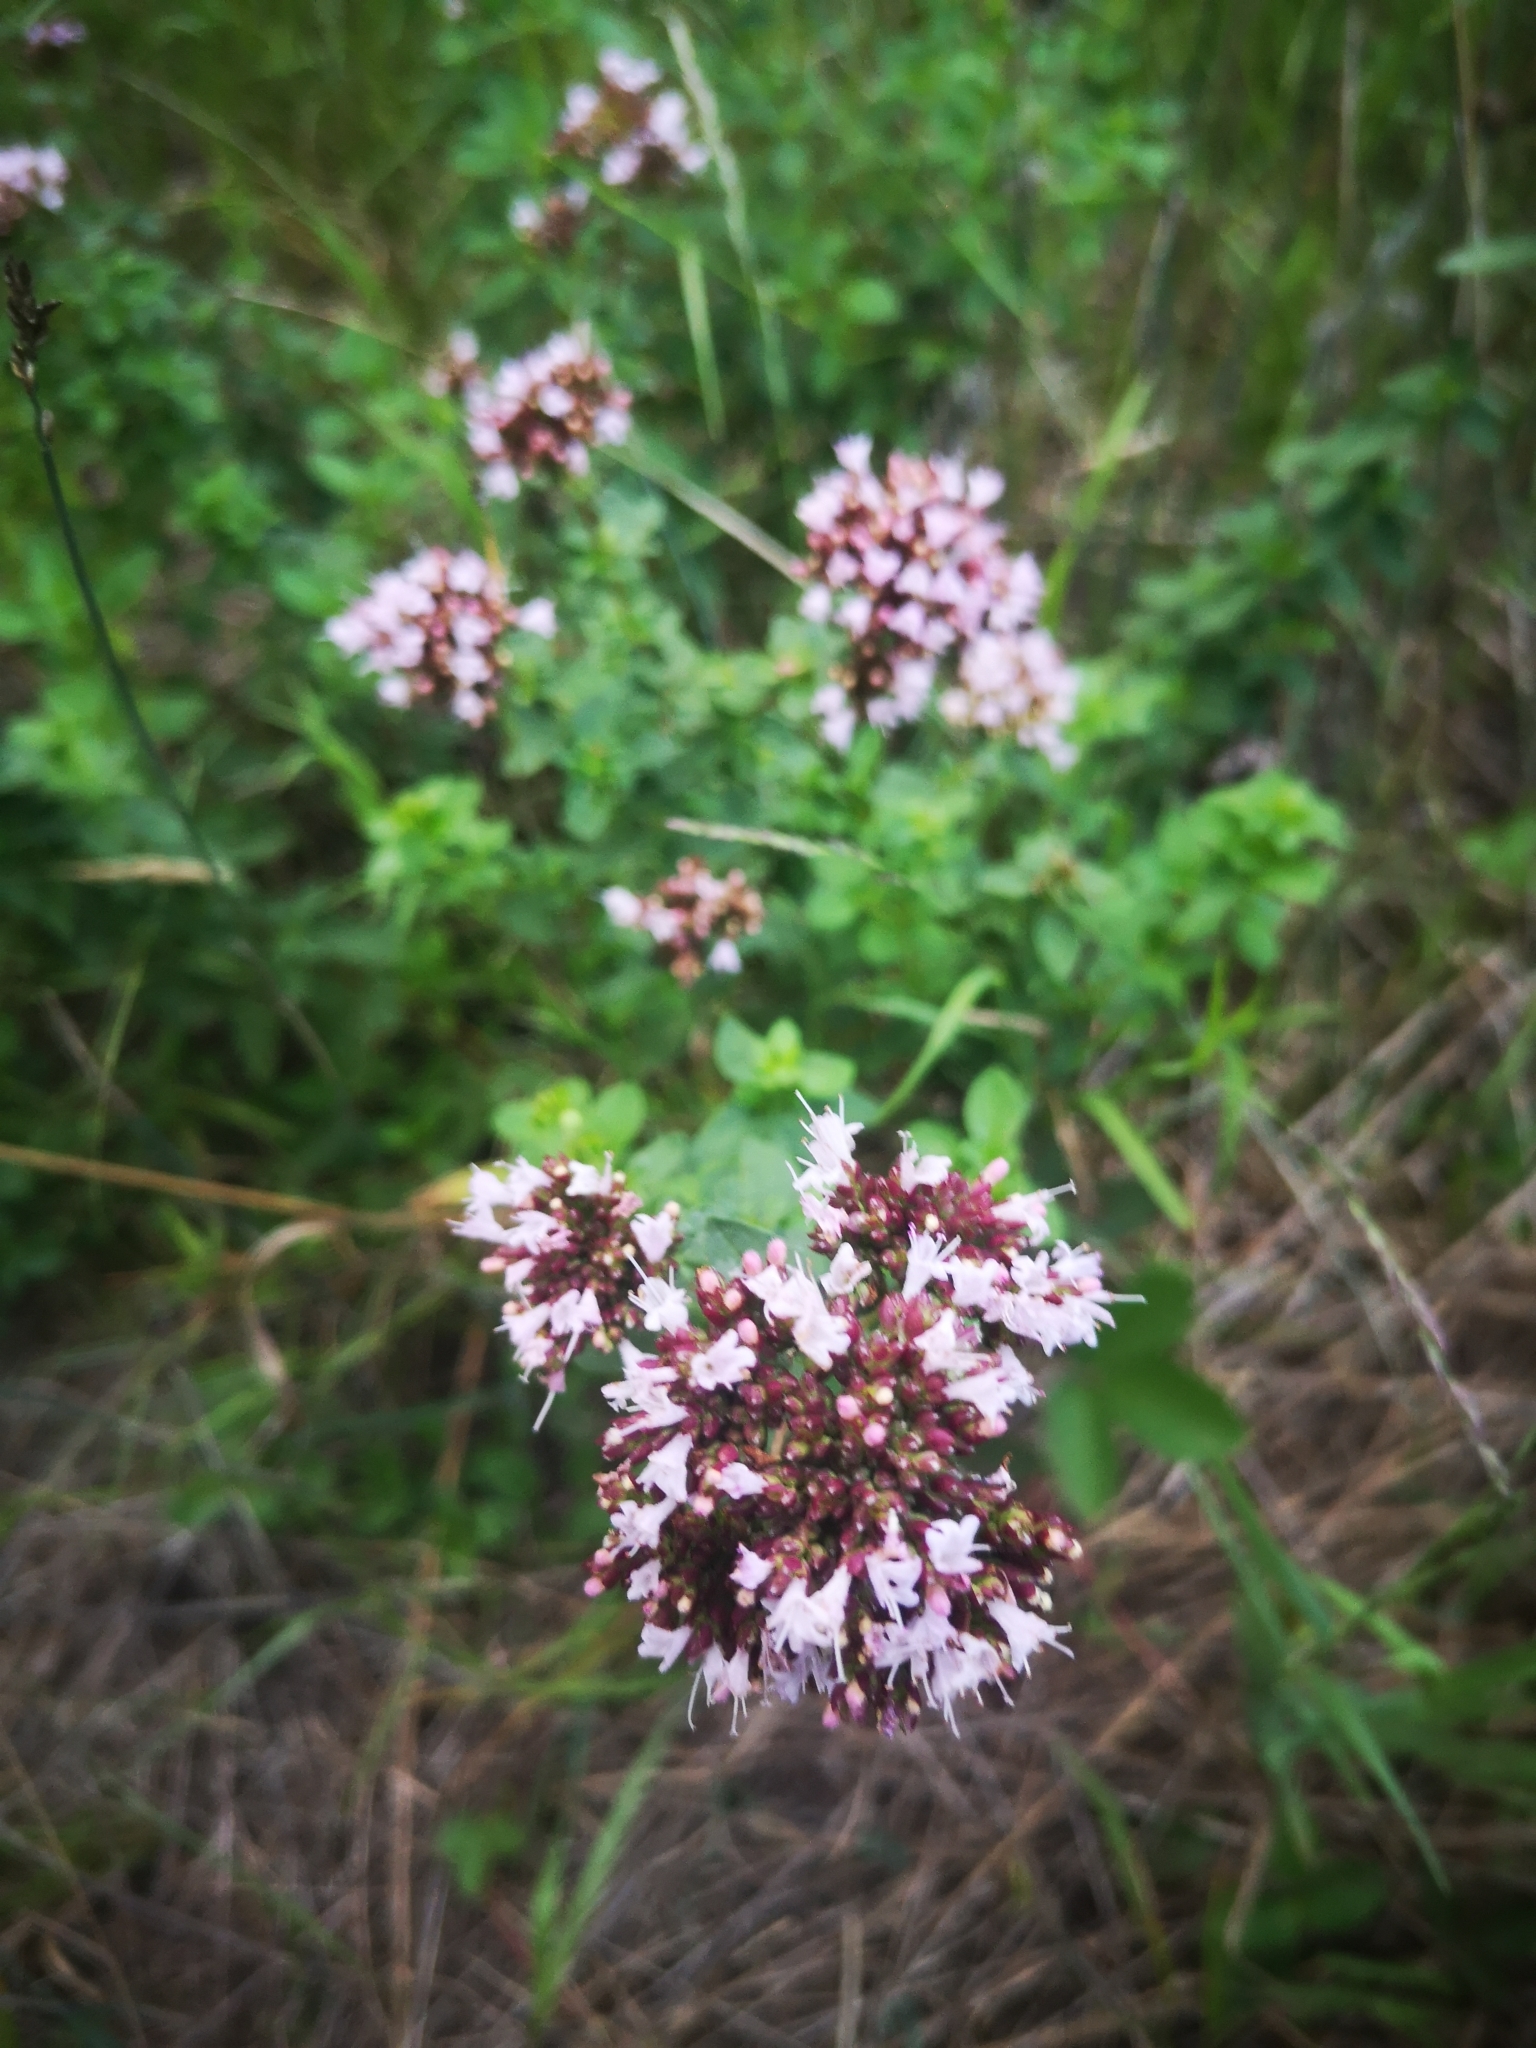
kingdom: Plantae
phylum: Tracheophyta
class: Magnoliopsida
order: Lamiales
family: Lamiaceae
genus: Origanum
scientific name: Origanum vulgare
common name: Wild marjoram
